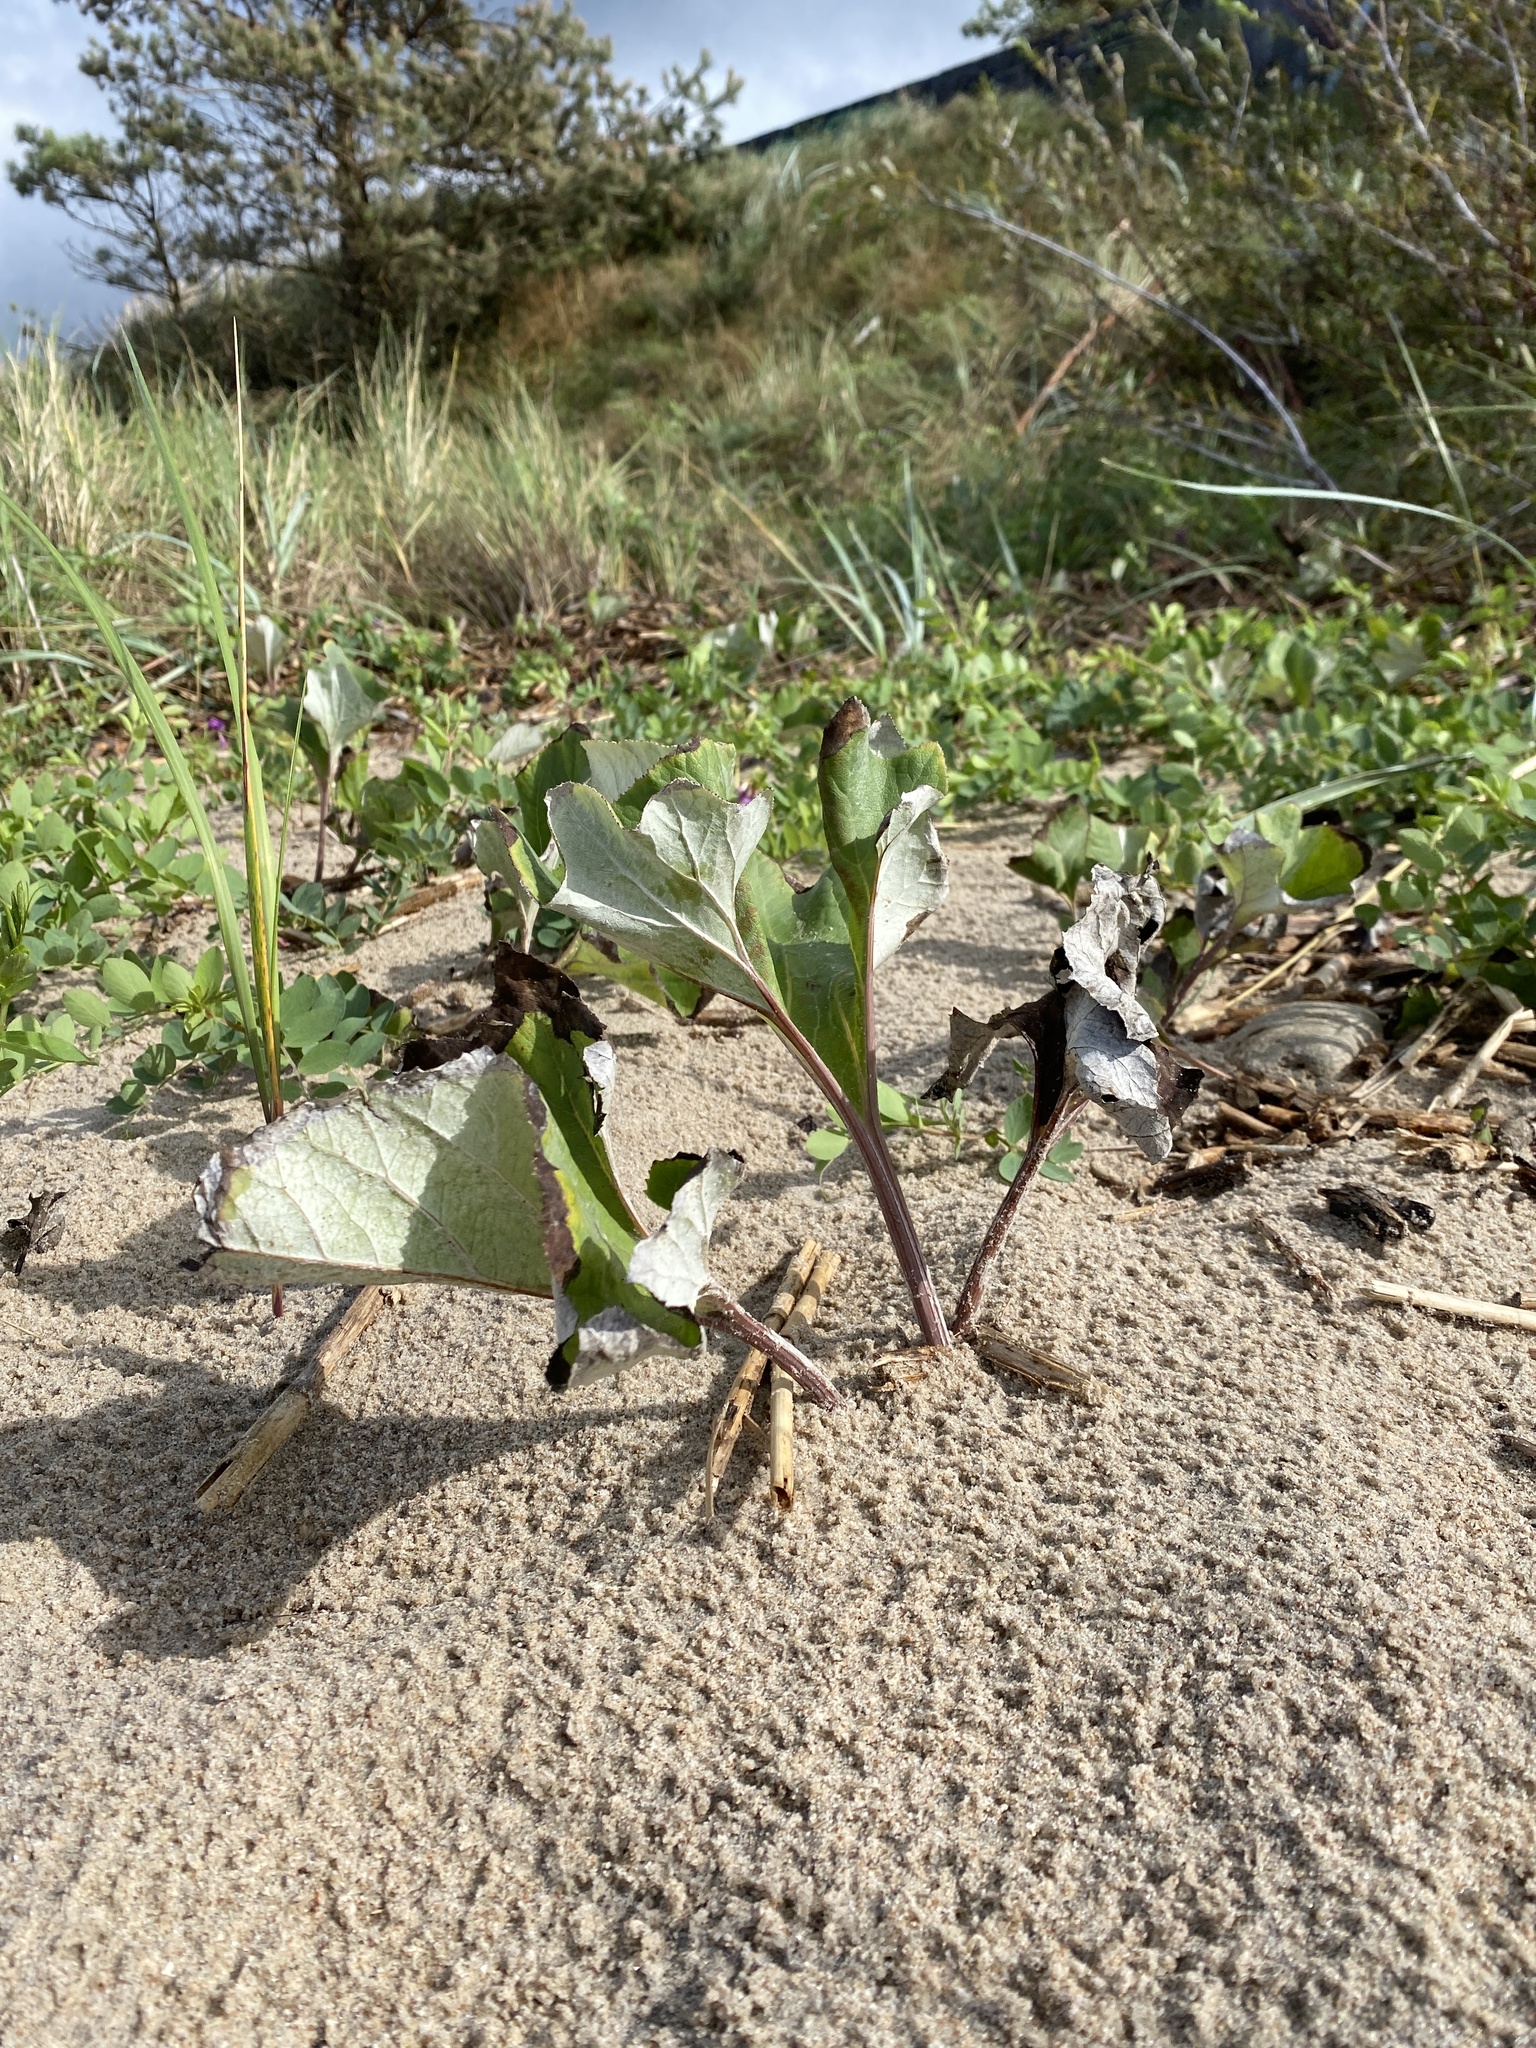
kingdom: Plantae
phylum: Tracheophyta
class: Magnoliopsida
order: Asterales
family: Asteraceae
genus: Petasites
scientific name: Petasites spurius
